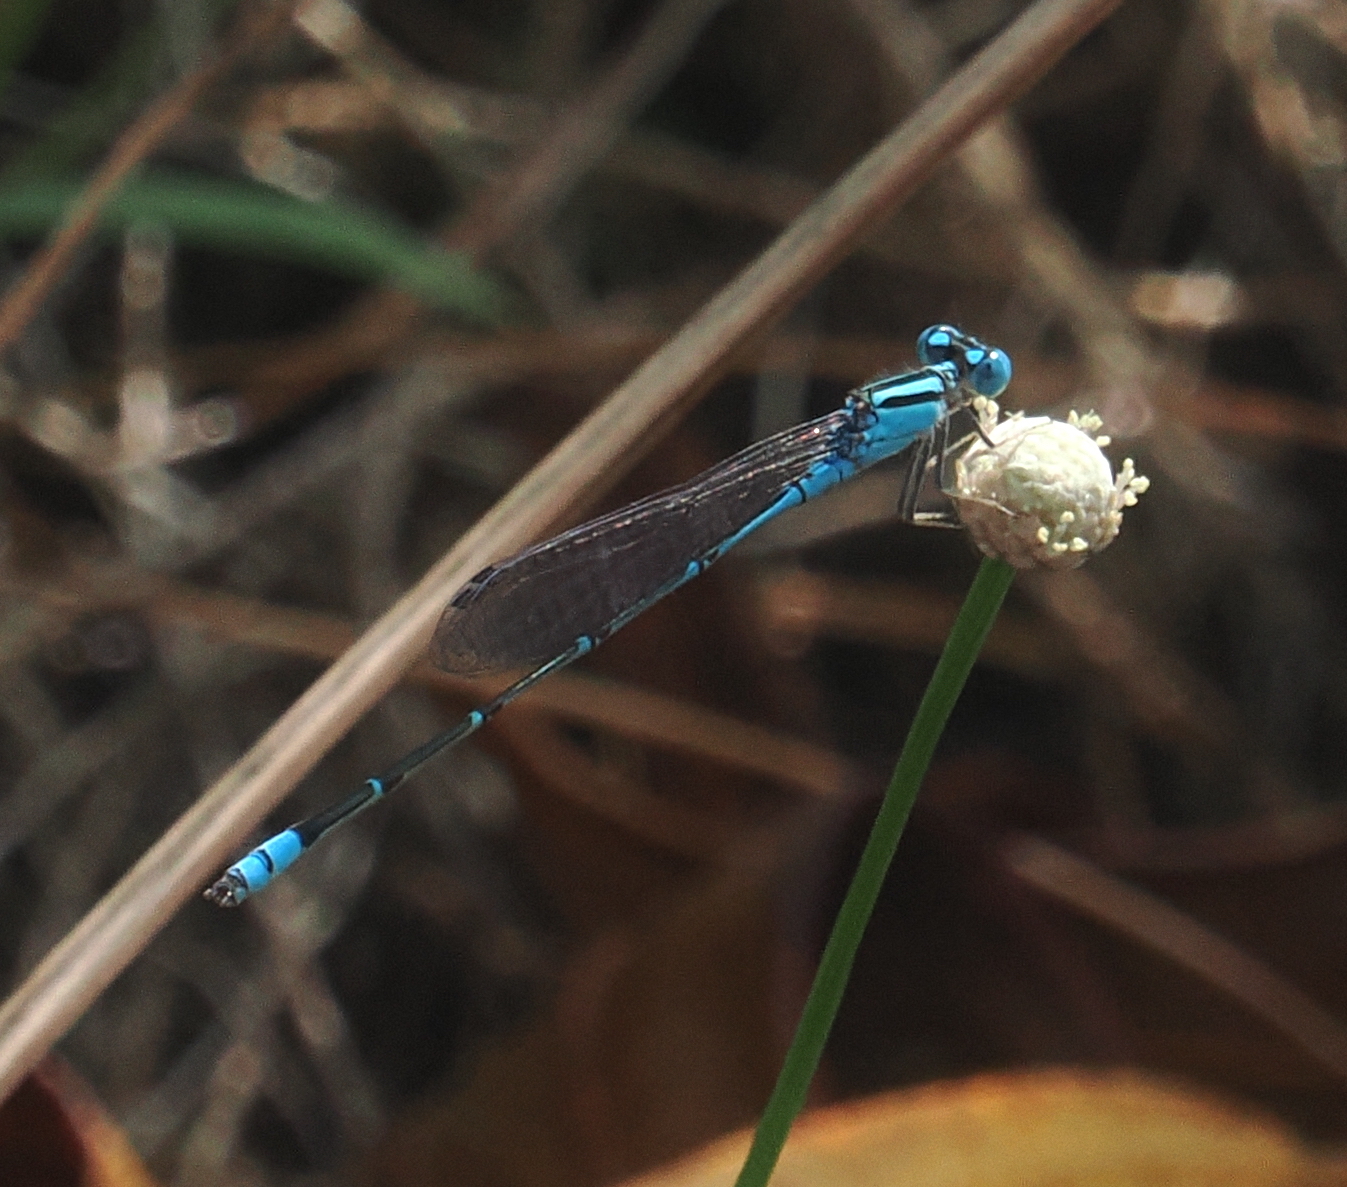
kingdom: Animalia
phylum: Arthropoda
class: Insecta
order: Odonata
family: Coenagrionidae
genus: Pseudagrion
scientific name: Pseudagrion microcephalum
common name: Blue riverdamsel
